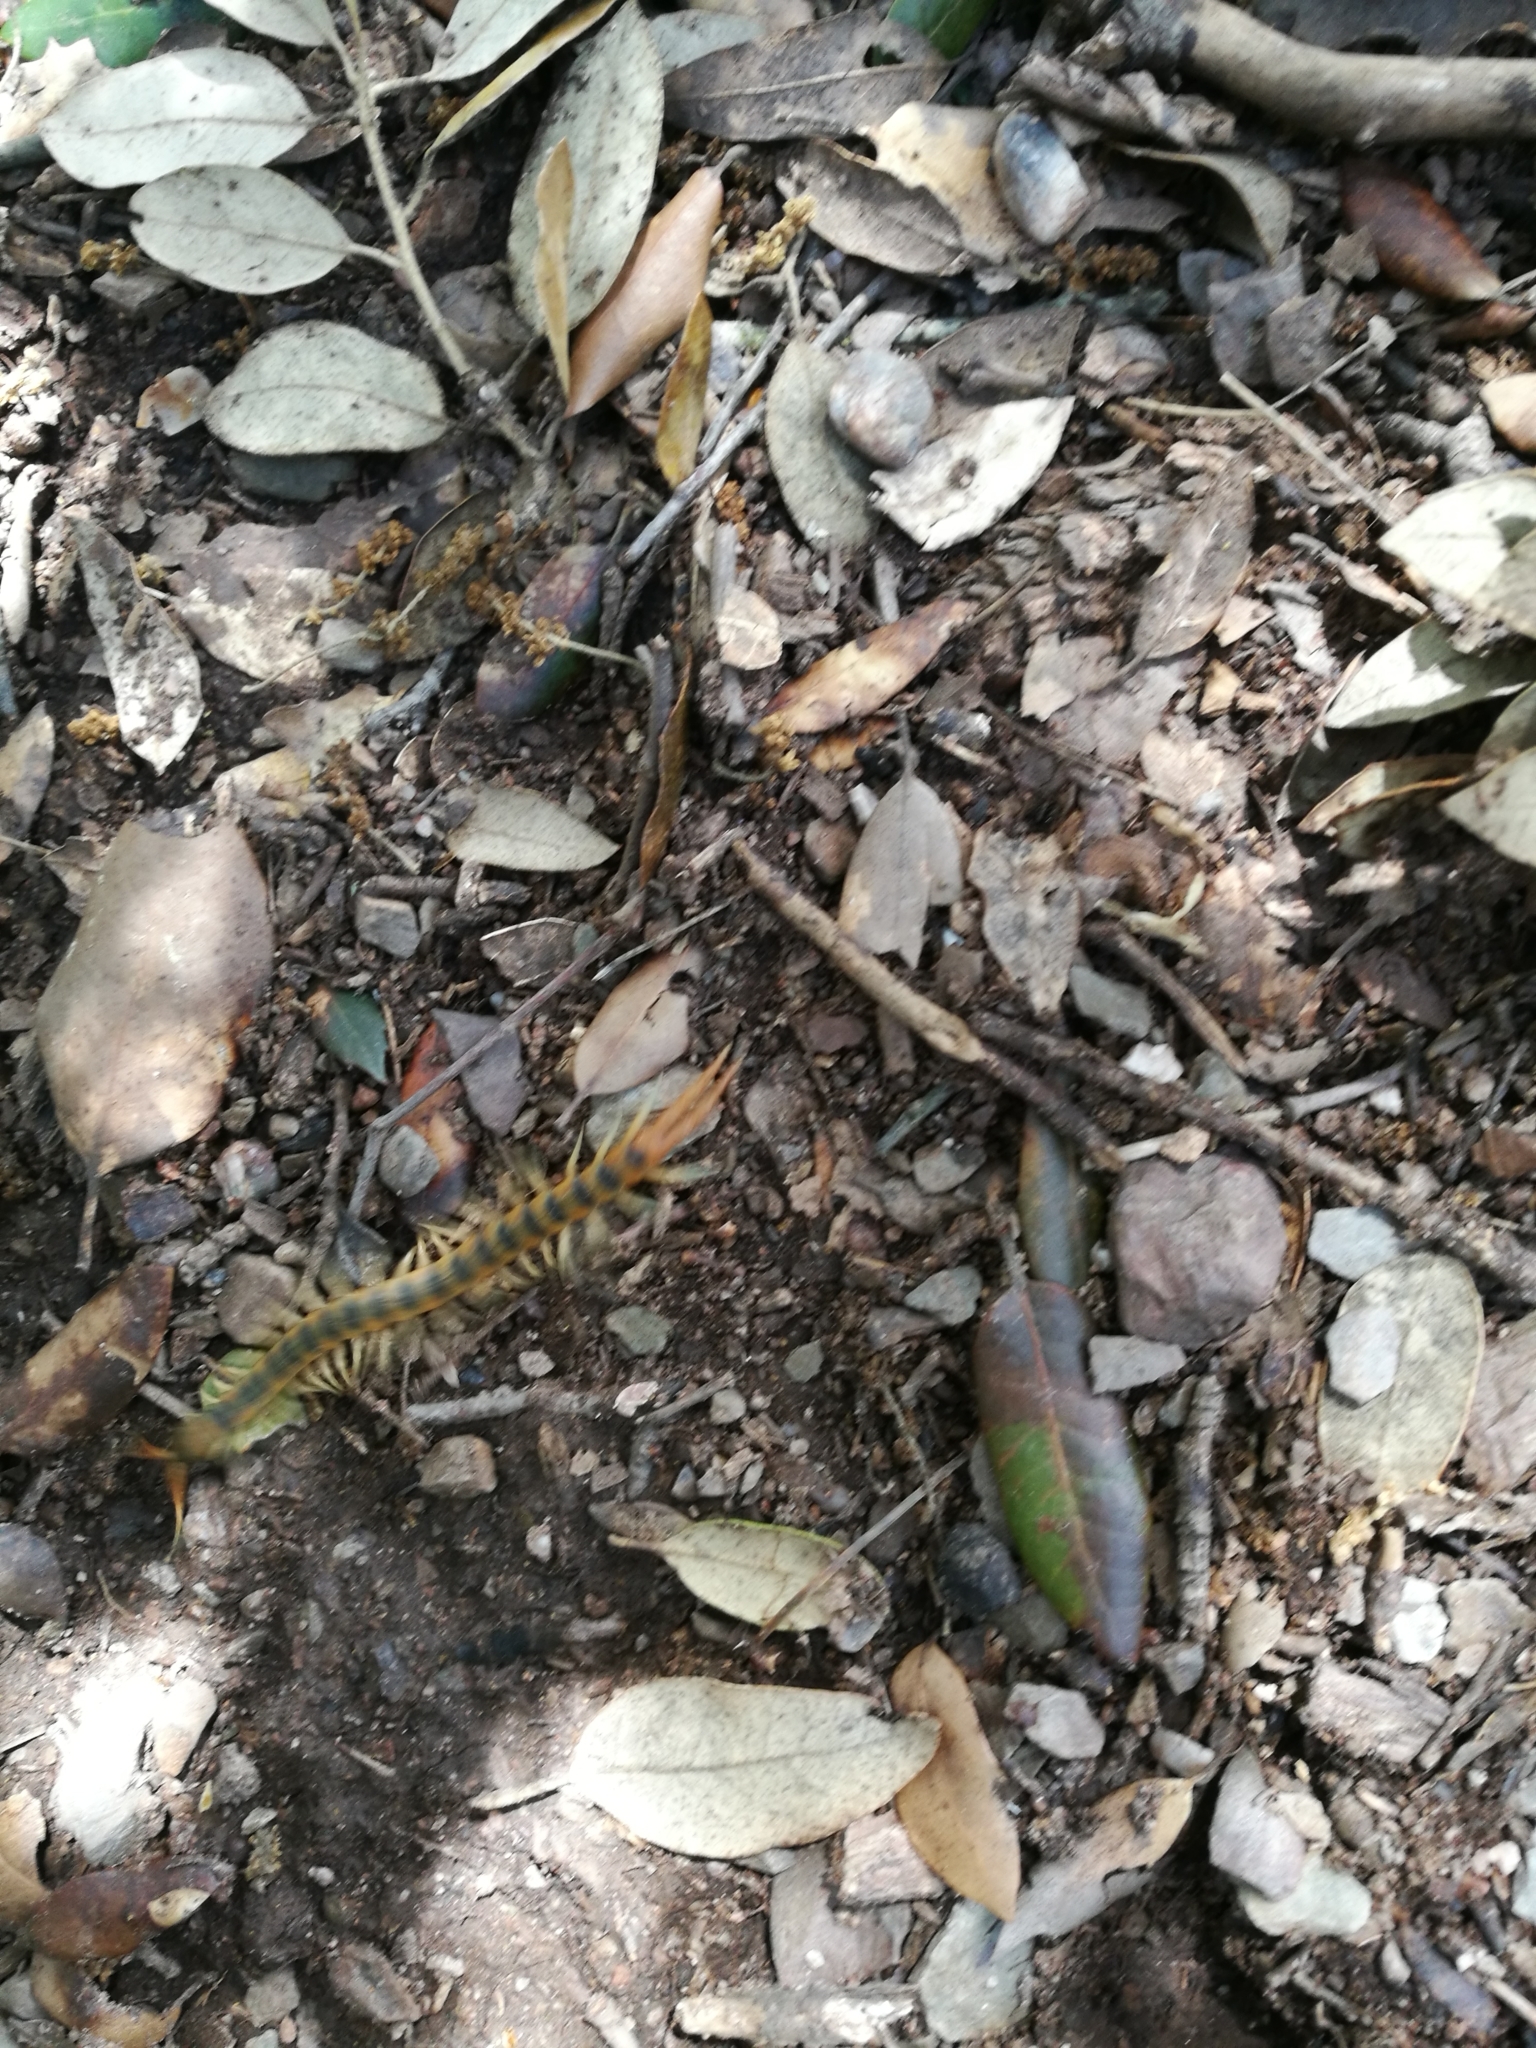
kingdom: Animalia
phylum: Arthropoda
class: Chilopoda
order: Scolopendromorpha
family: Scolopendridae
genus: Scolopendra
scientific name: Scolopendra cingulata
